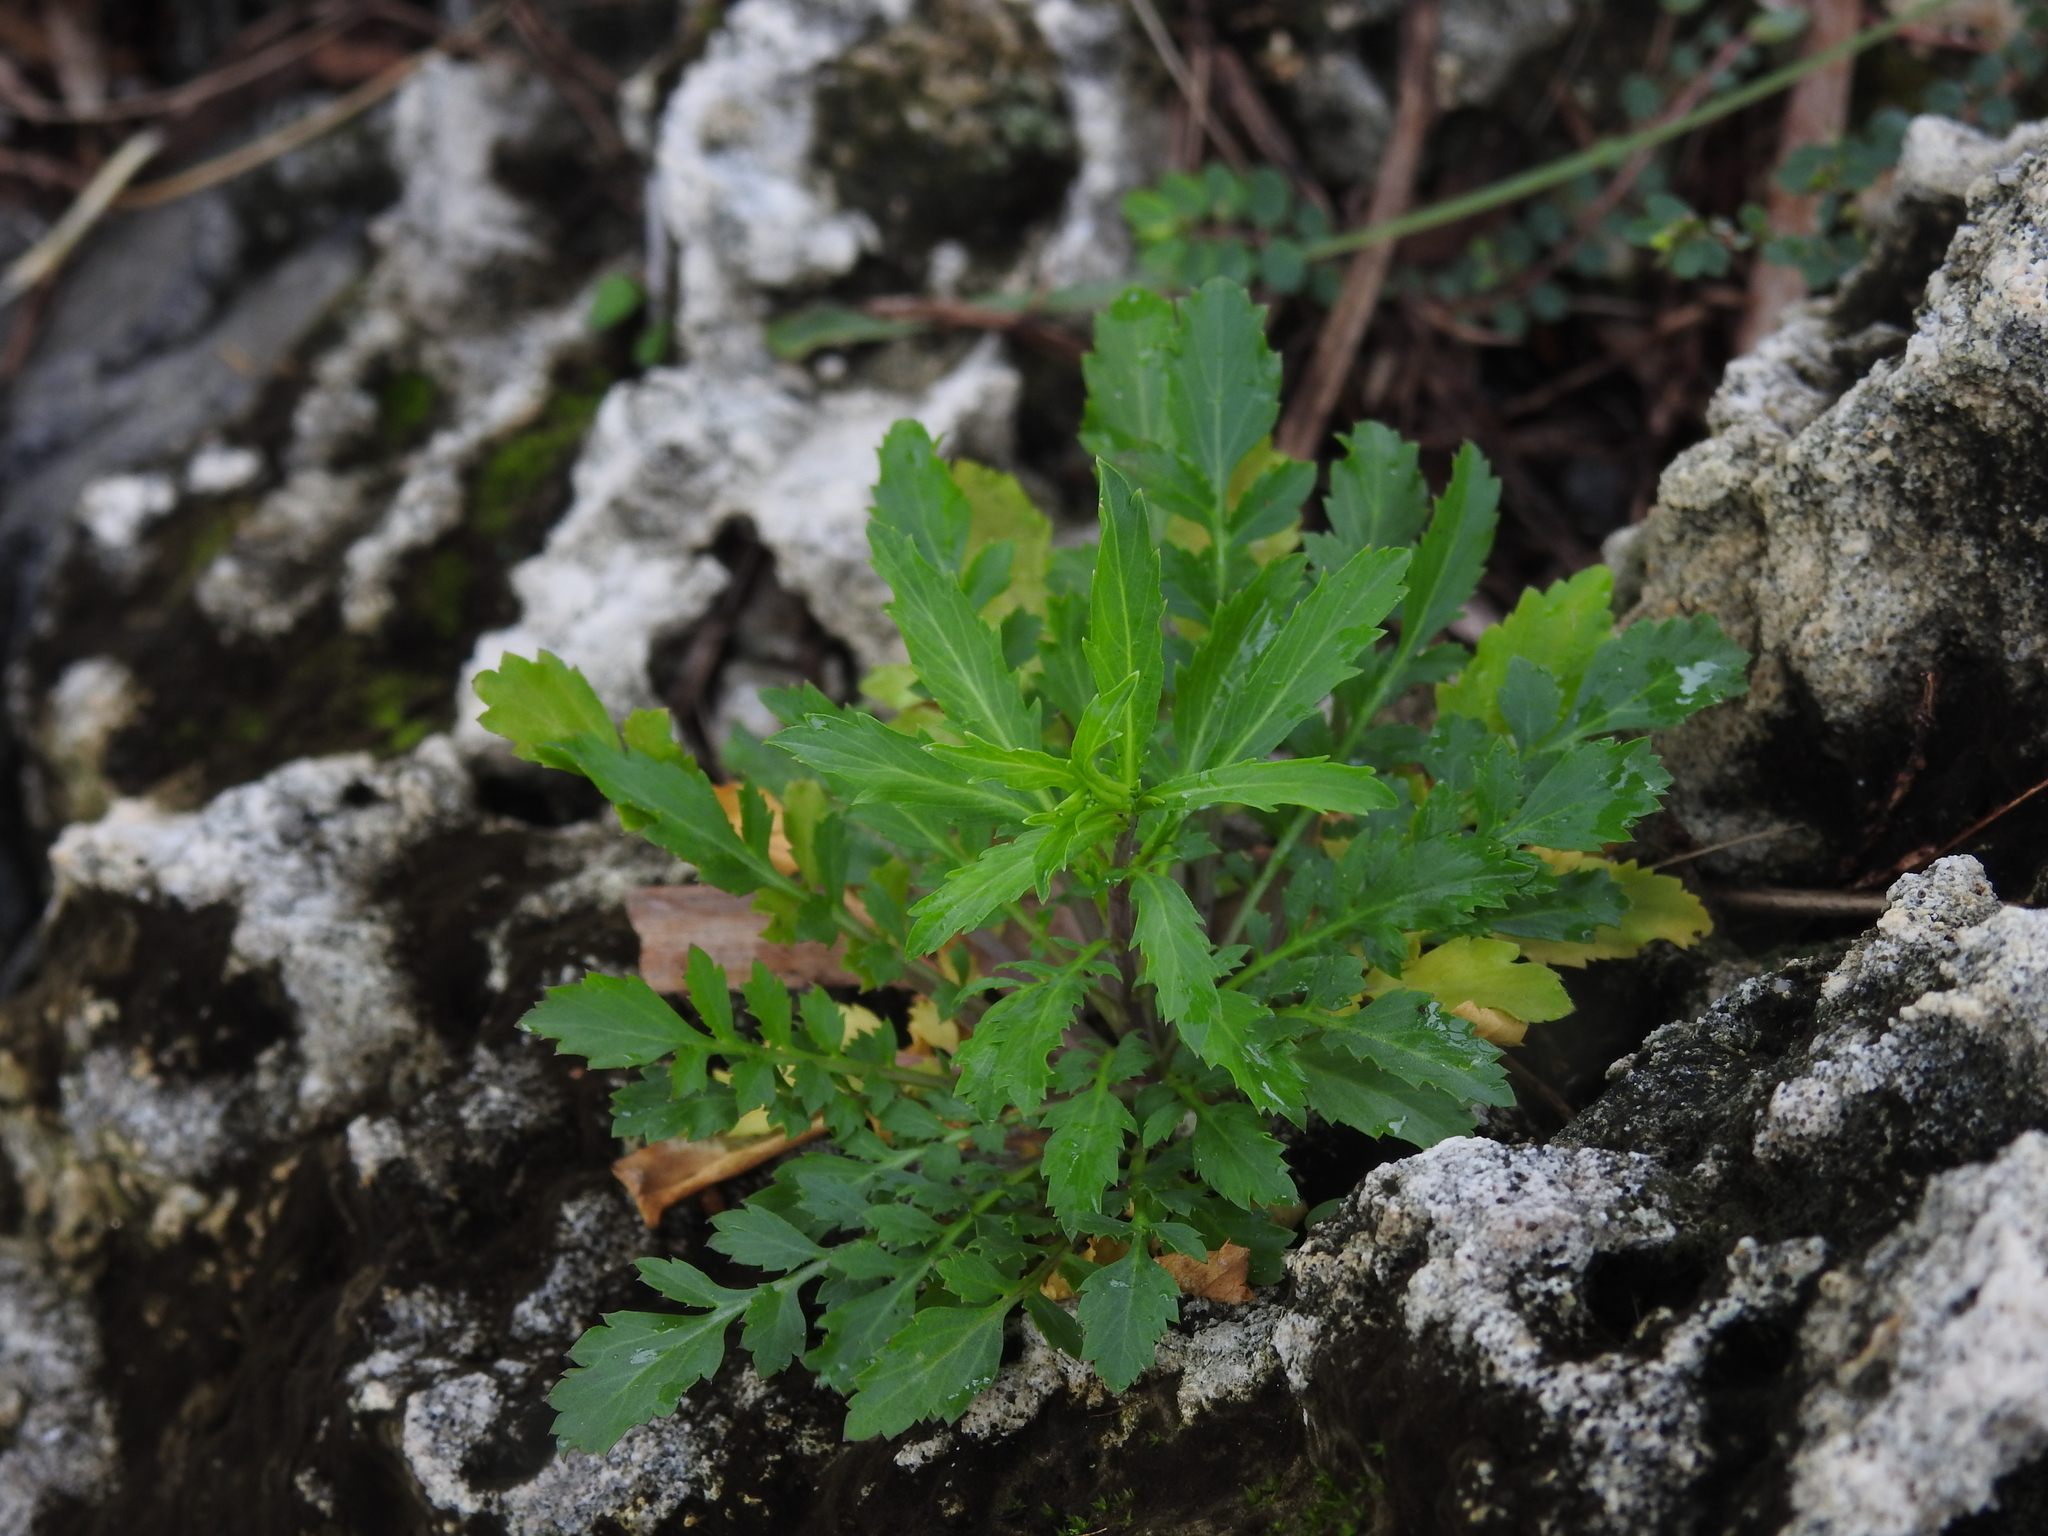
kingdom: Plantae
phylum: Tracheophyta
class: Magnoliopsida
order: Brassicales
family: Brassicaceae
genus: Lepidium
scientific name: Lepidium virginicum
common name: Least pepperwort
